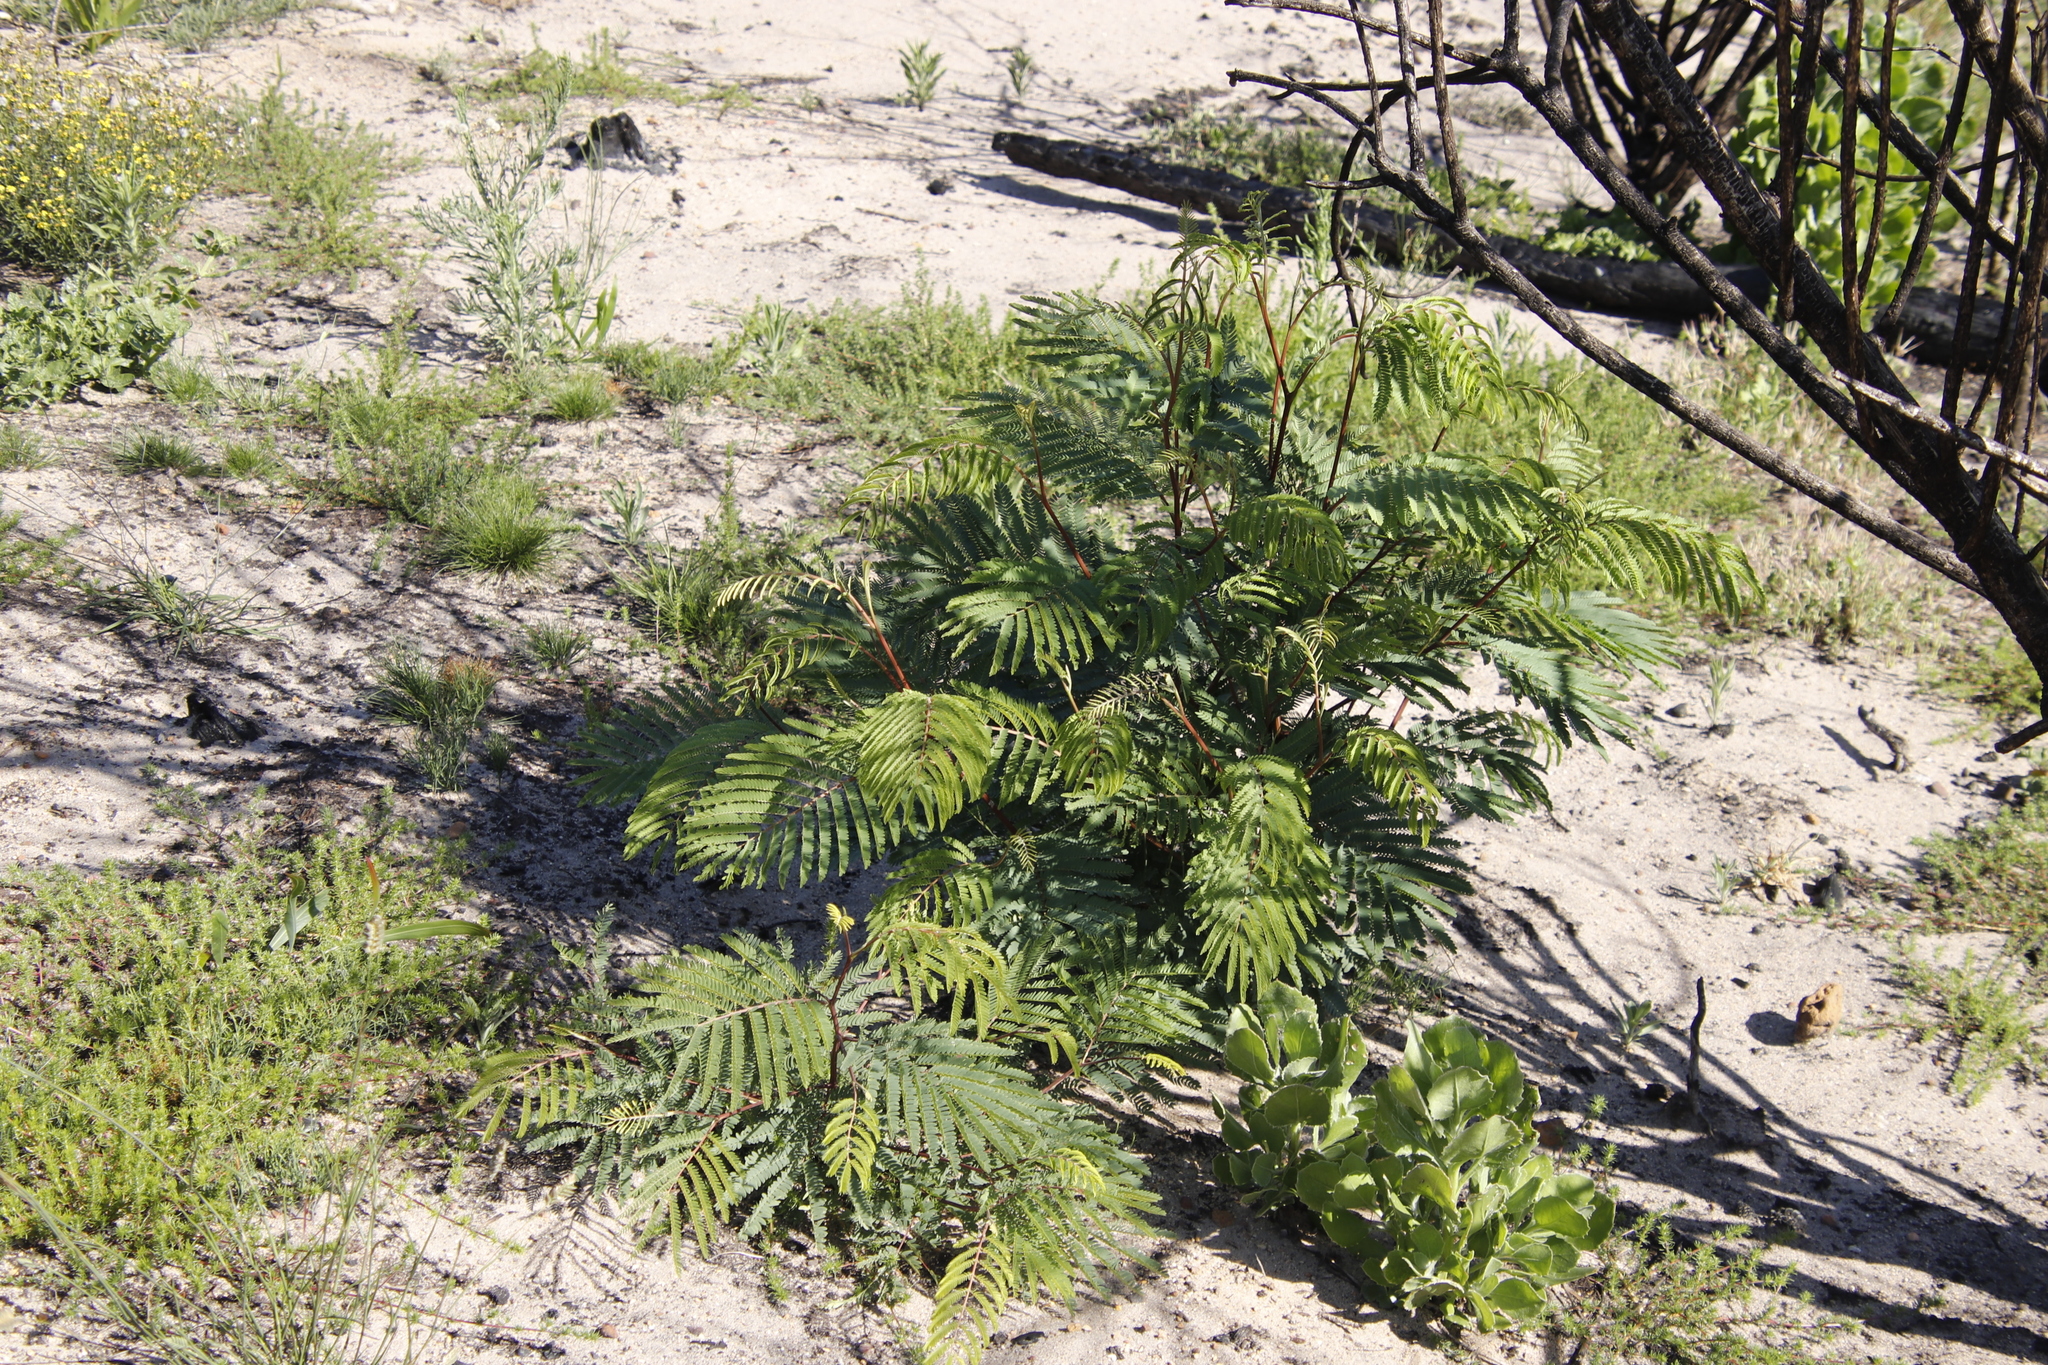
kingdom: Plantae
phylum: Tracheophyta
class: Magnoliopsida
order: Fabales
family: Fabaceae
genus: Paraserianthes
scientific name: Paraserianthes lophantha
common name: Plume albizia
